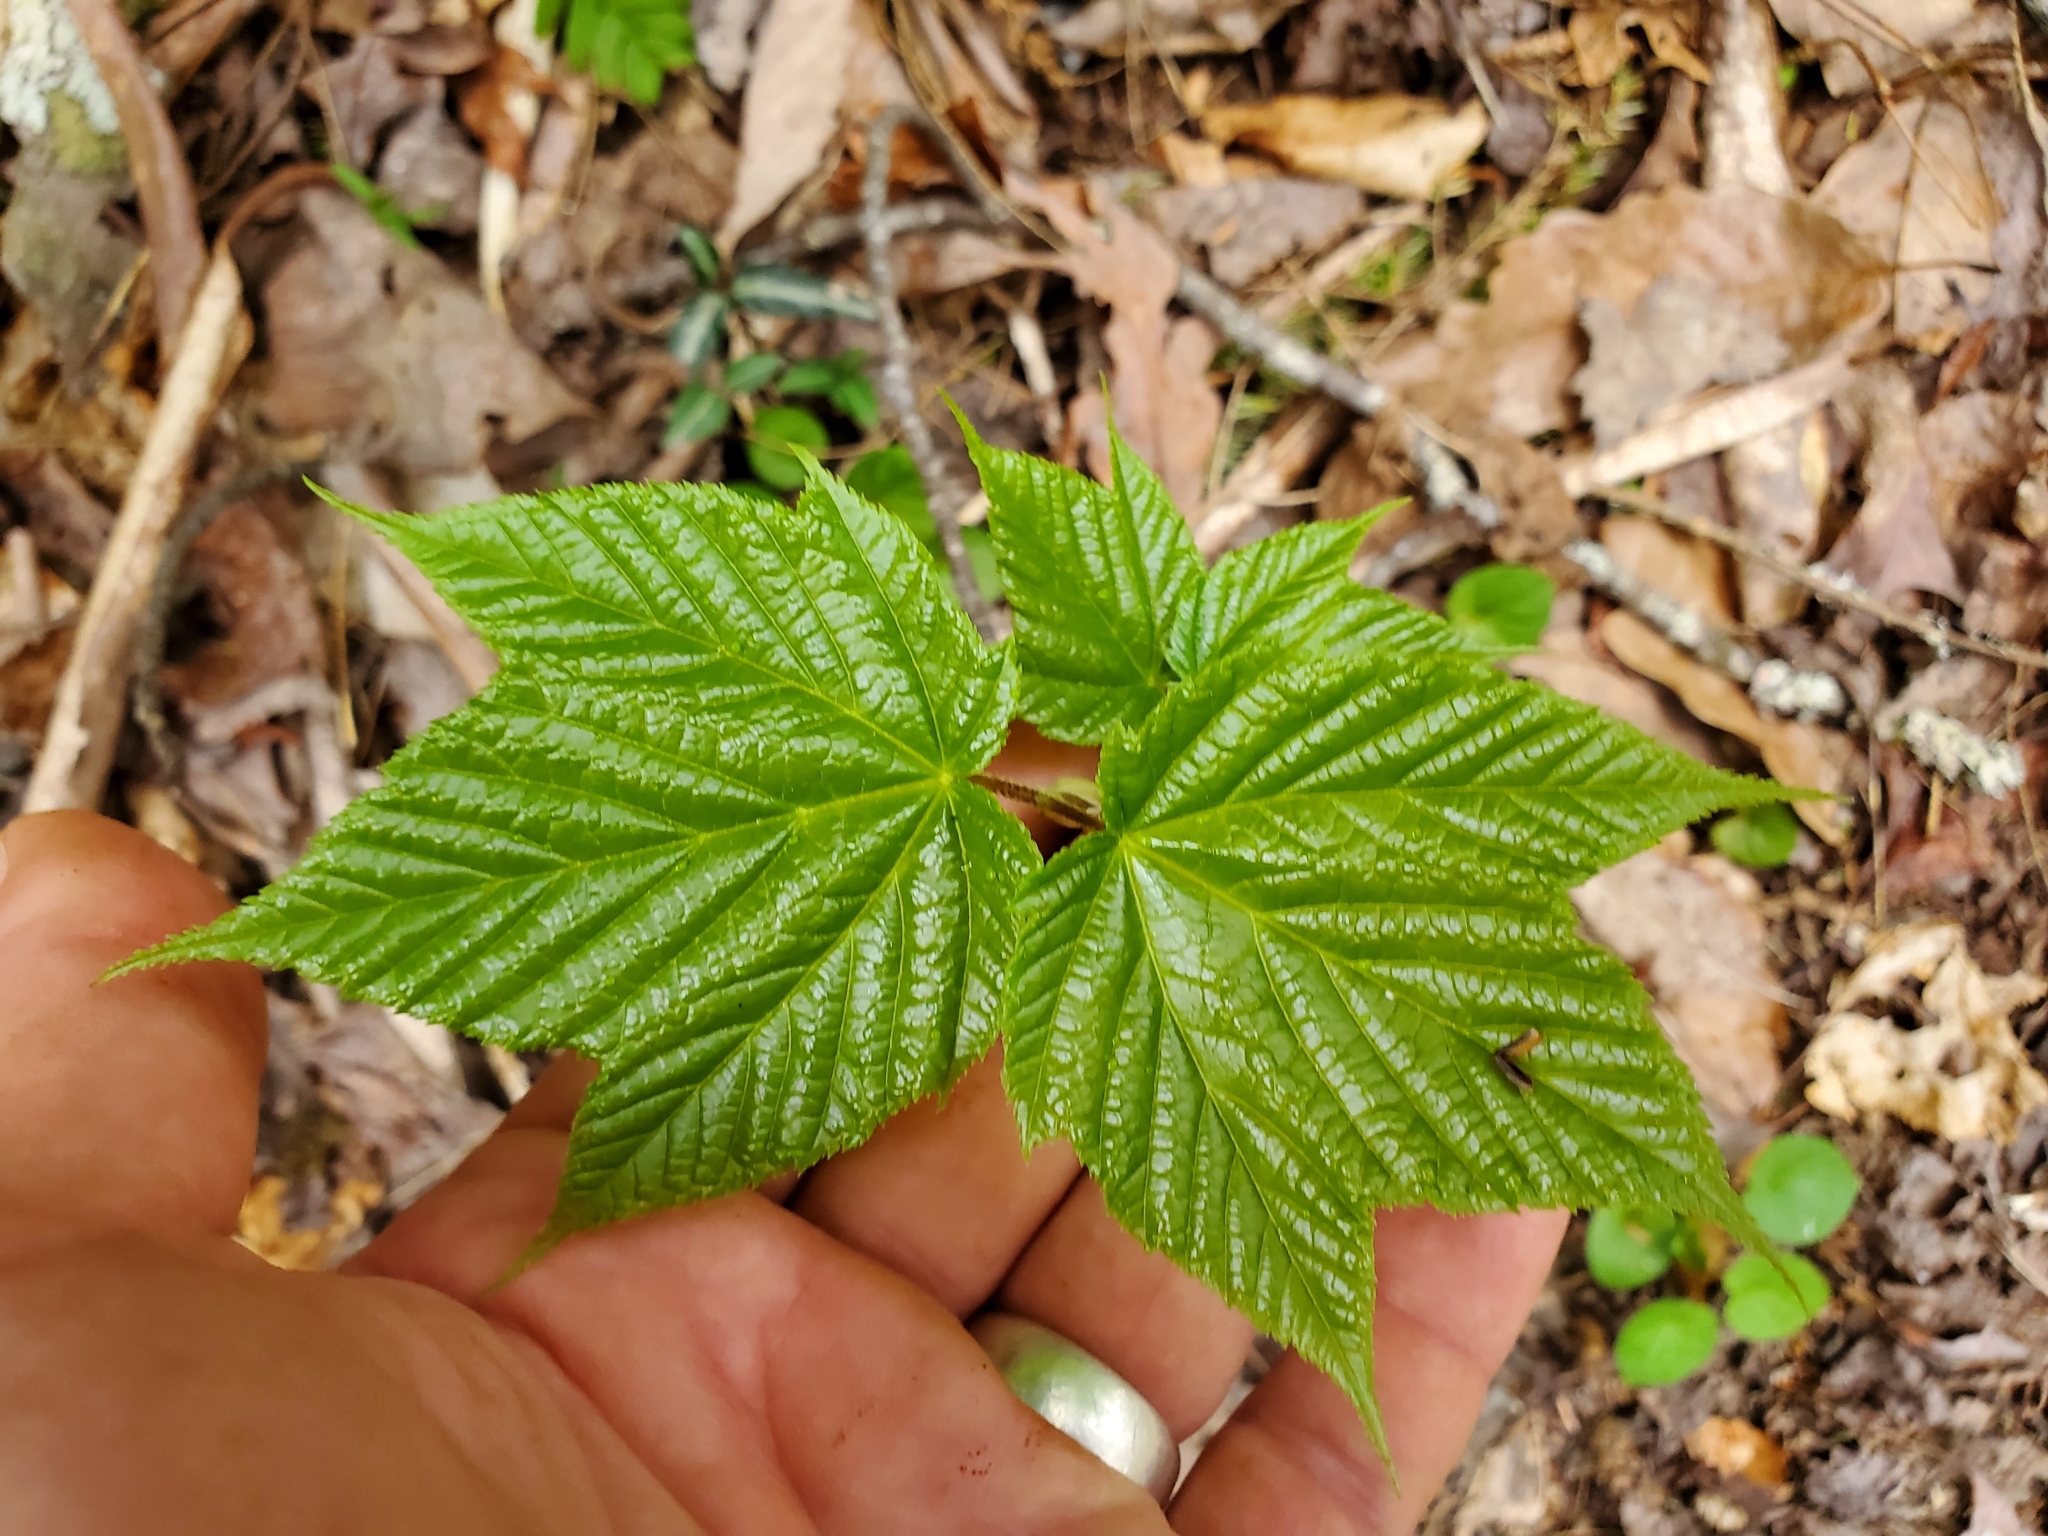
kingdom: Plantae
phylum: Tracheophyta
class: Magnoliopsida
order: Sapindales
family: Sapindaceae
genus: Acer
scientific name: Acer pensylvanicum
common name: Moosewood
